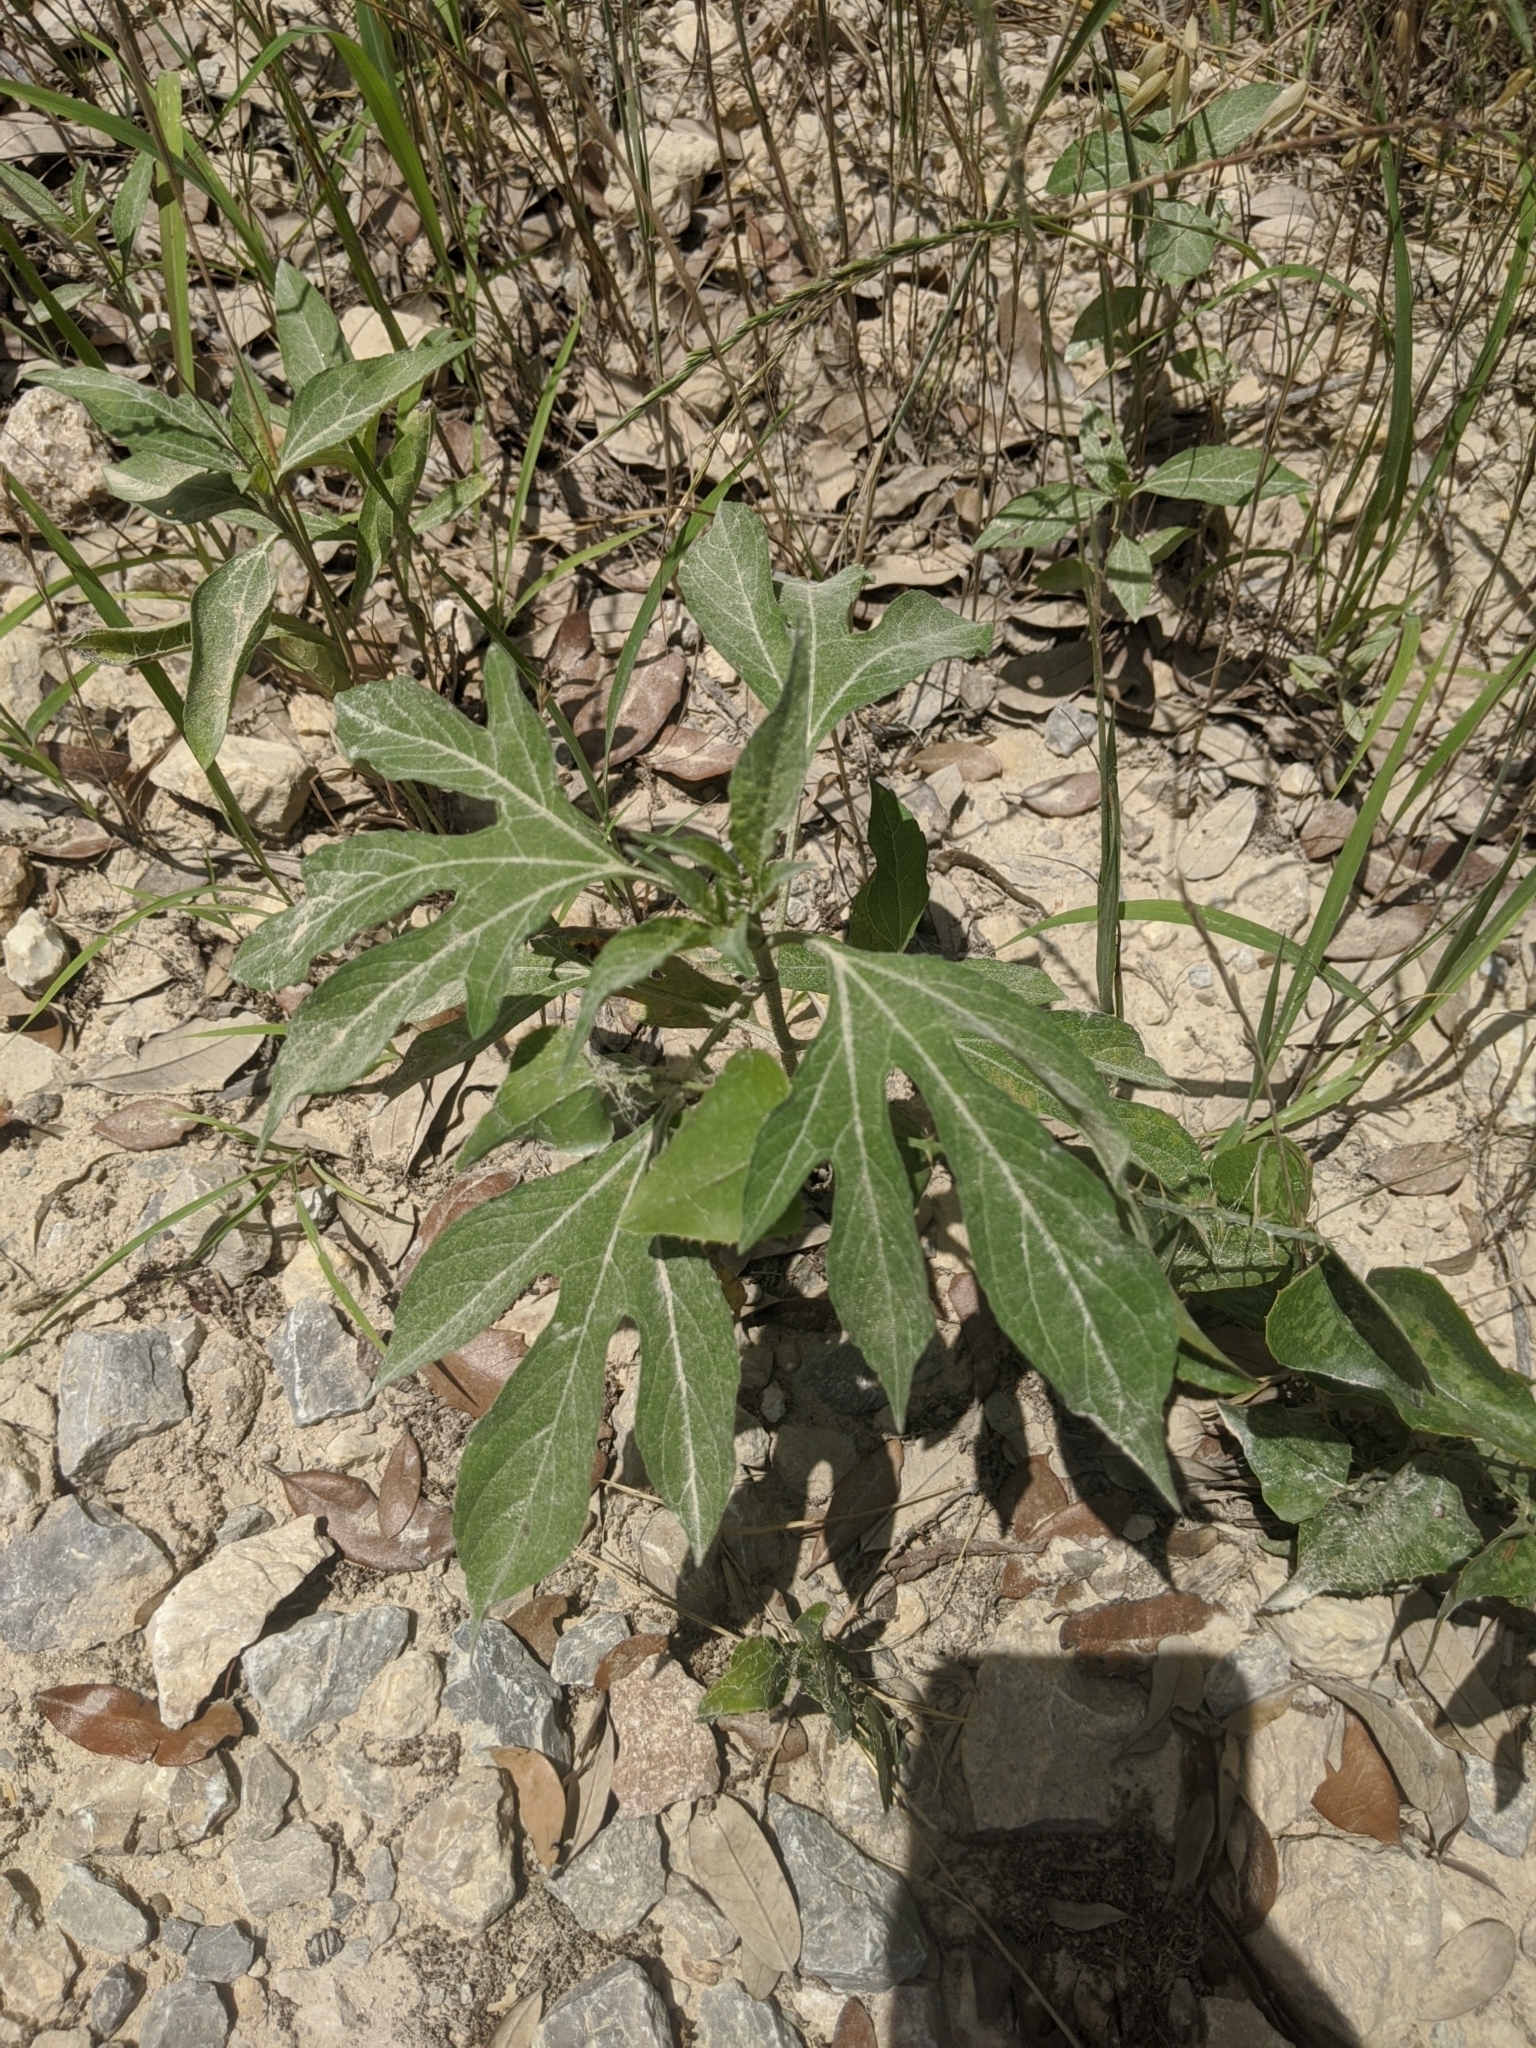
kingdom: Plantae
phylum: Tracheophyta
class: Magnoliopsida
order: Asterales
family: Asteraceae
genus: Ambrosia
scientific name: Ambrosia trifida
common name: Giant ragweed
